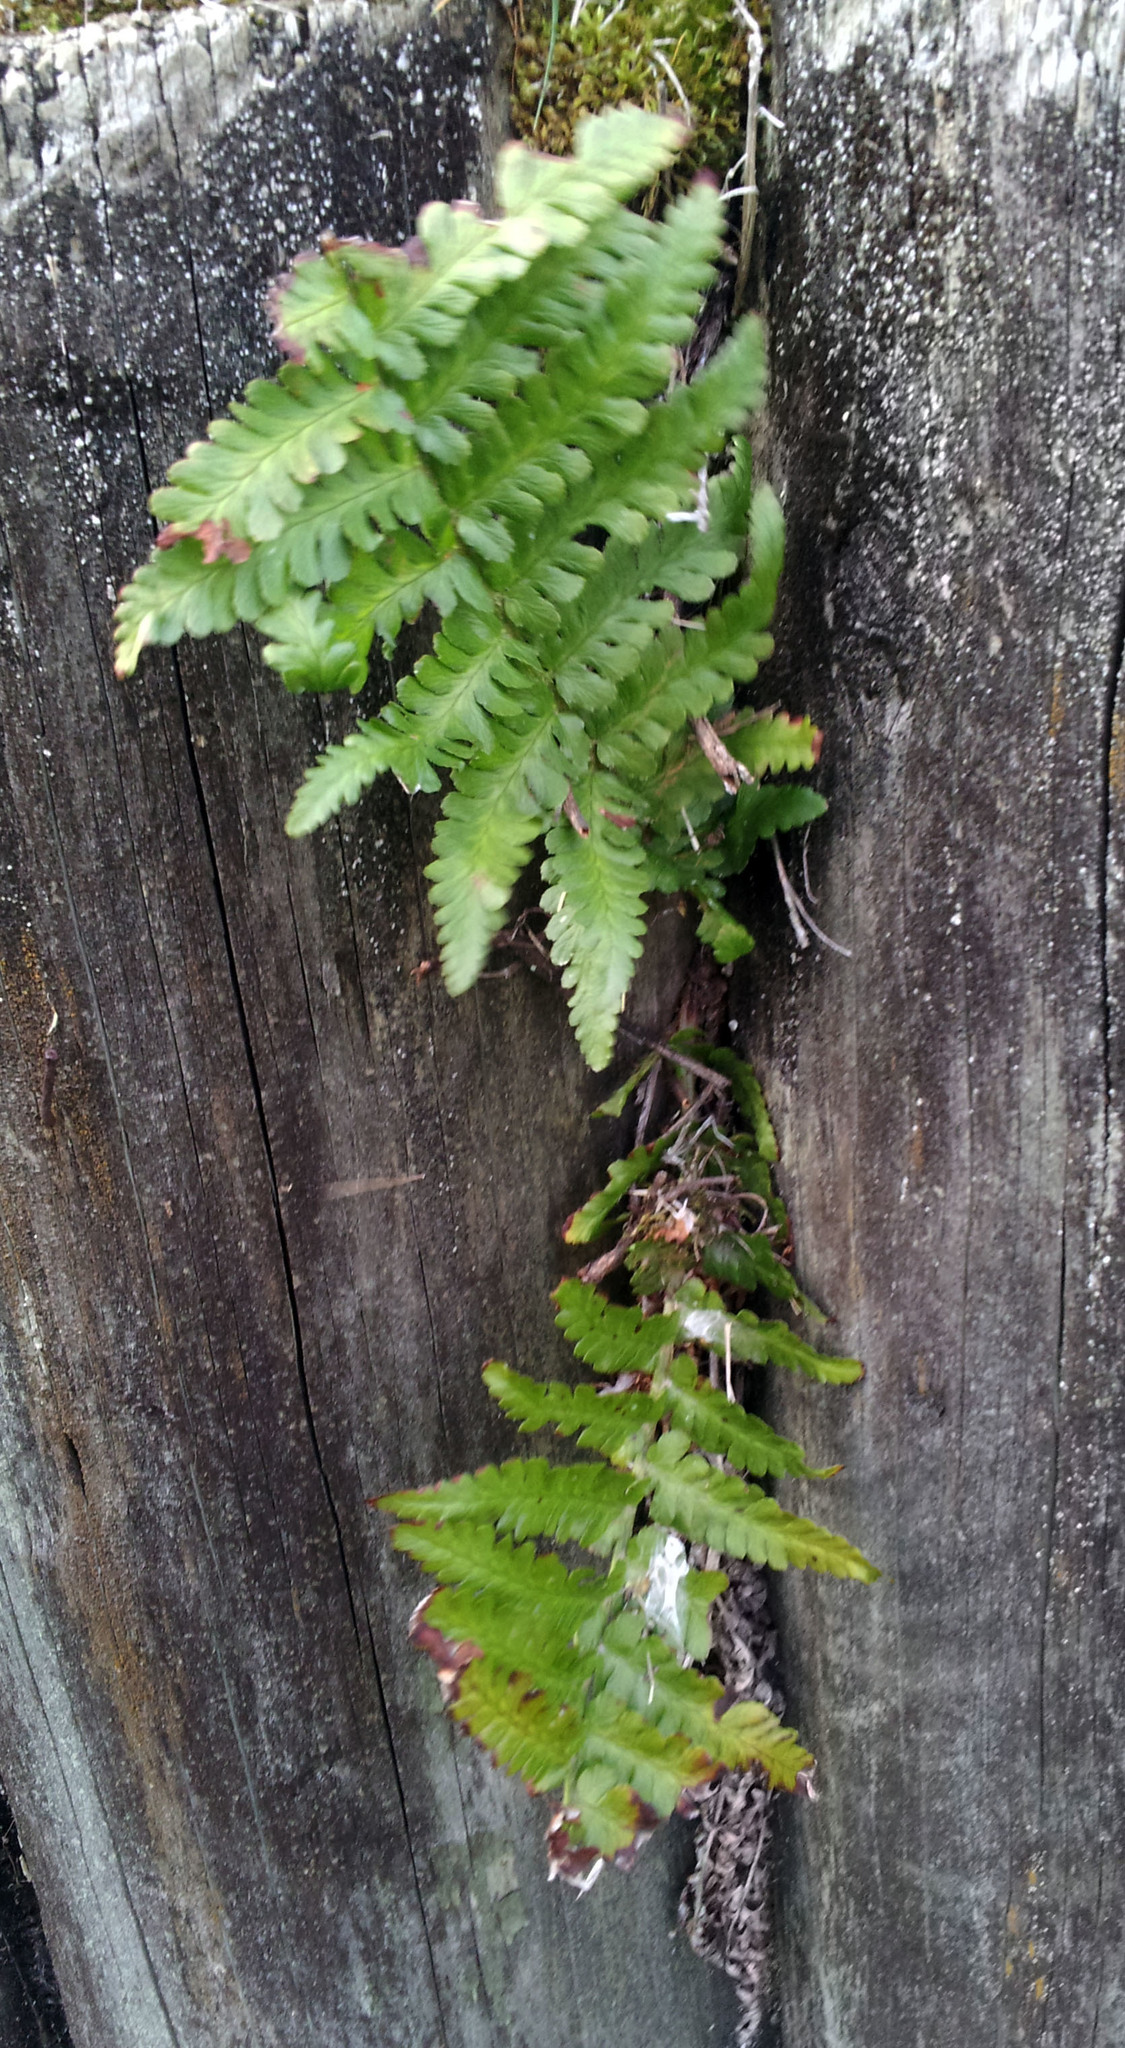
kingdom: Plantae
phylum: Tracheophyta
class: Polypodiopsida
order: Polypodiales
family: Dryopteridaceae
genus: Dryopteris
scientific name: Dryopteris filix-mas
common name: Male fern
